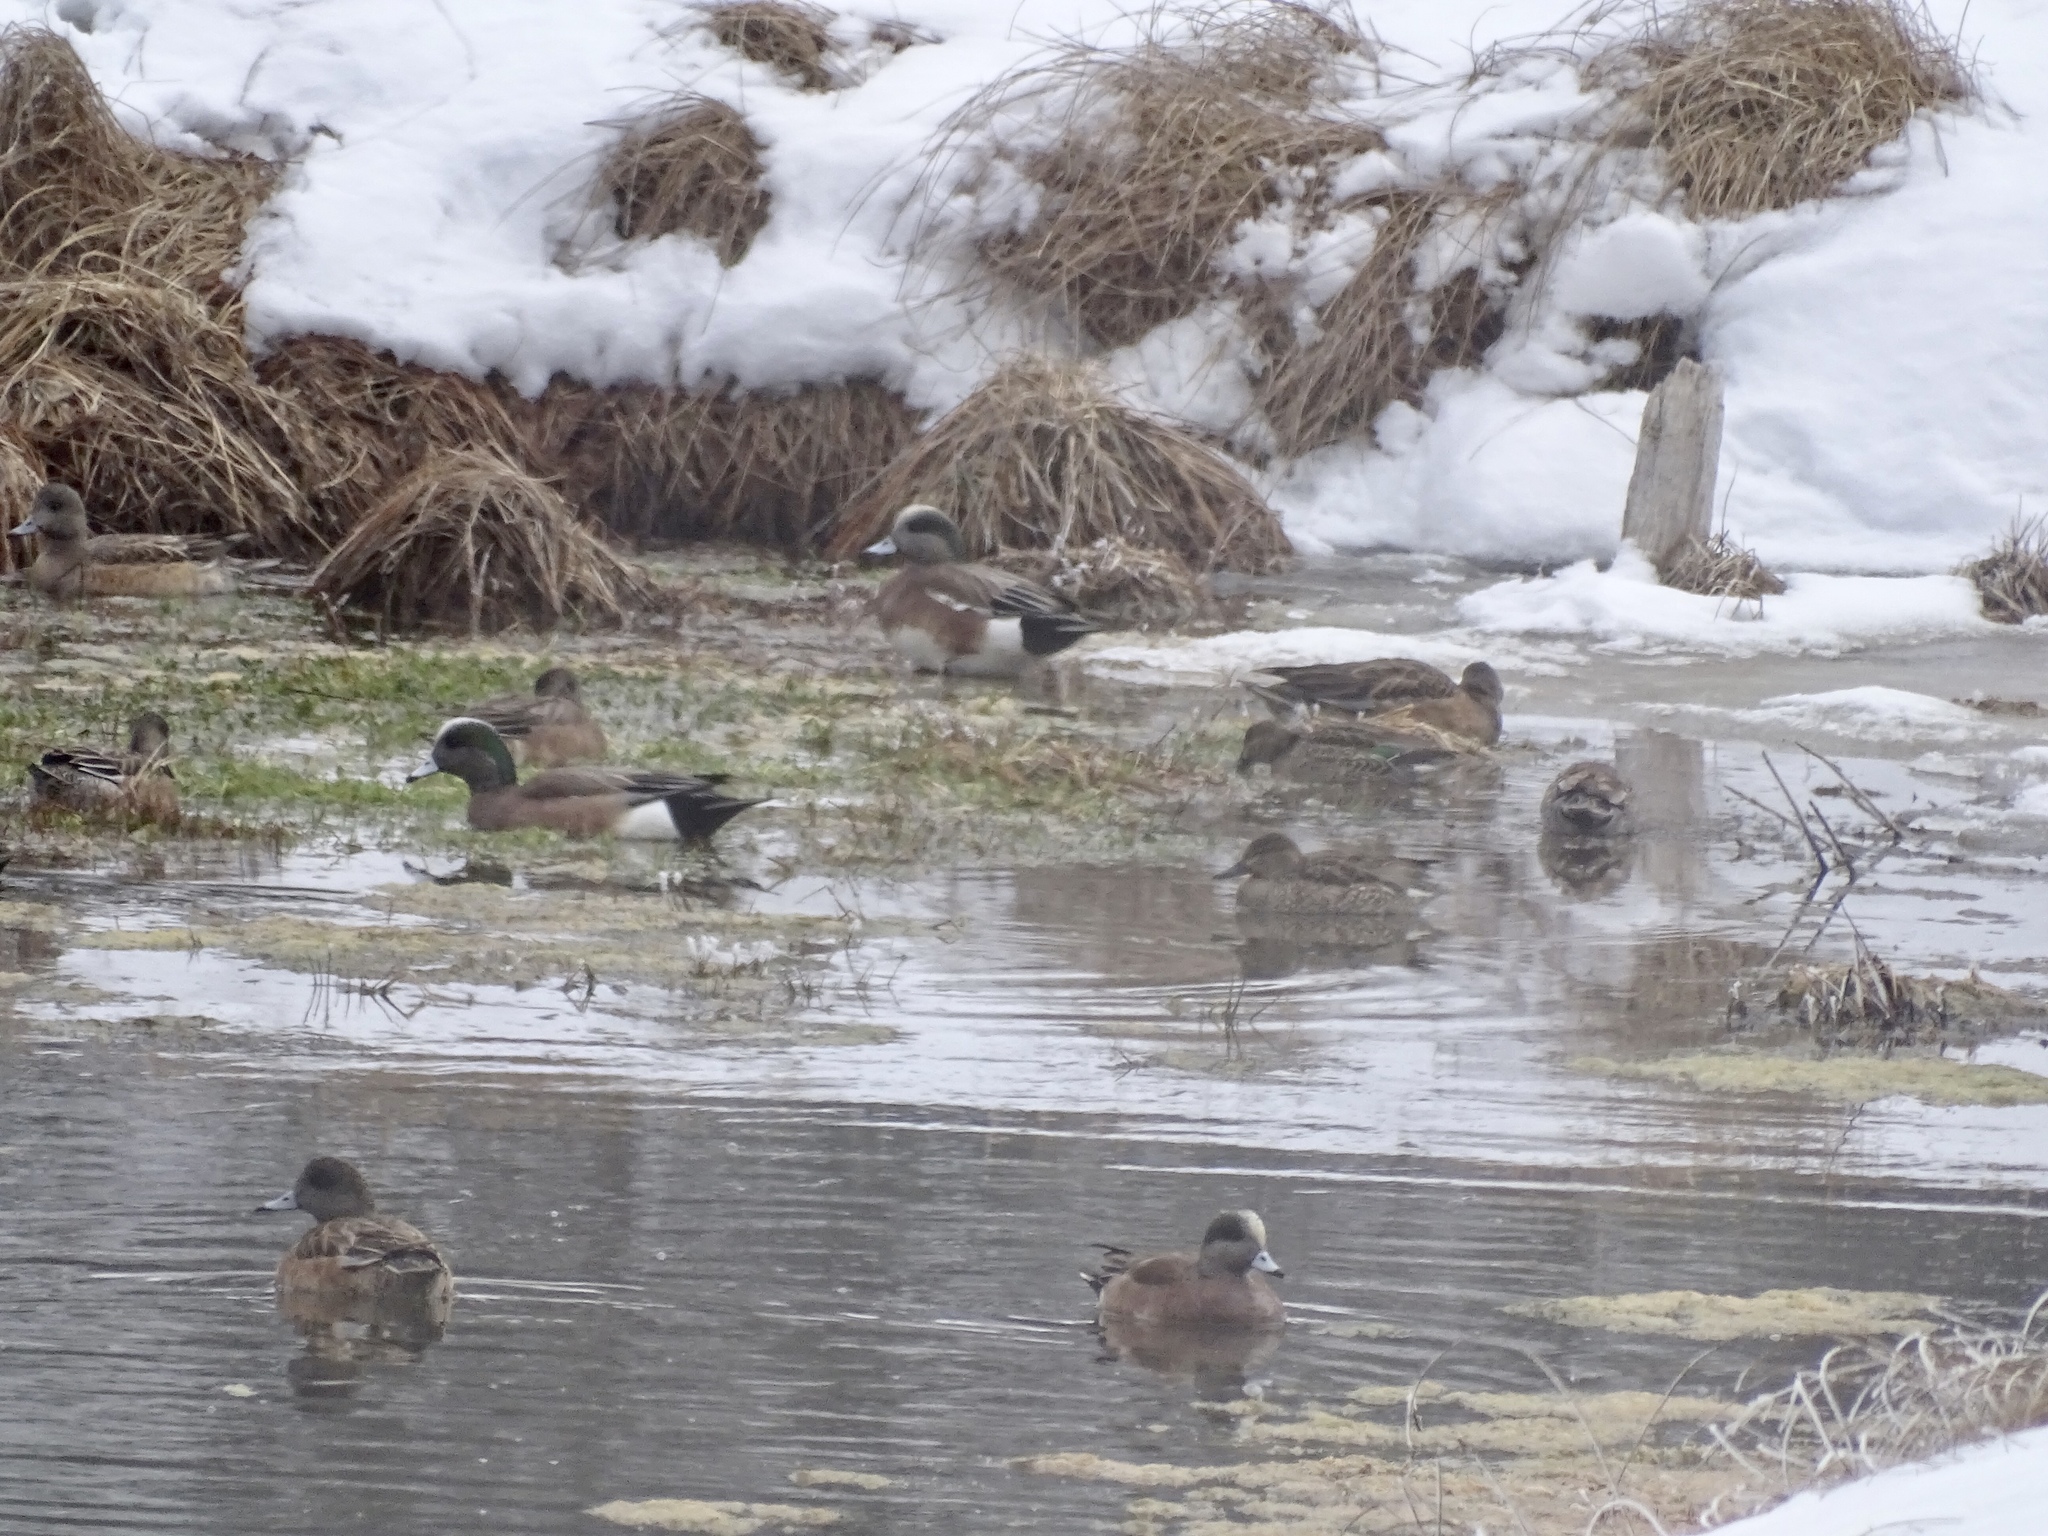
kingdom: Animalia
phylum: Chordata
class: Aves
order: Anseriformes
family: Anatidae
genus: Mareca
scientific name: Mareca americana
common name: American wigeon
